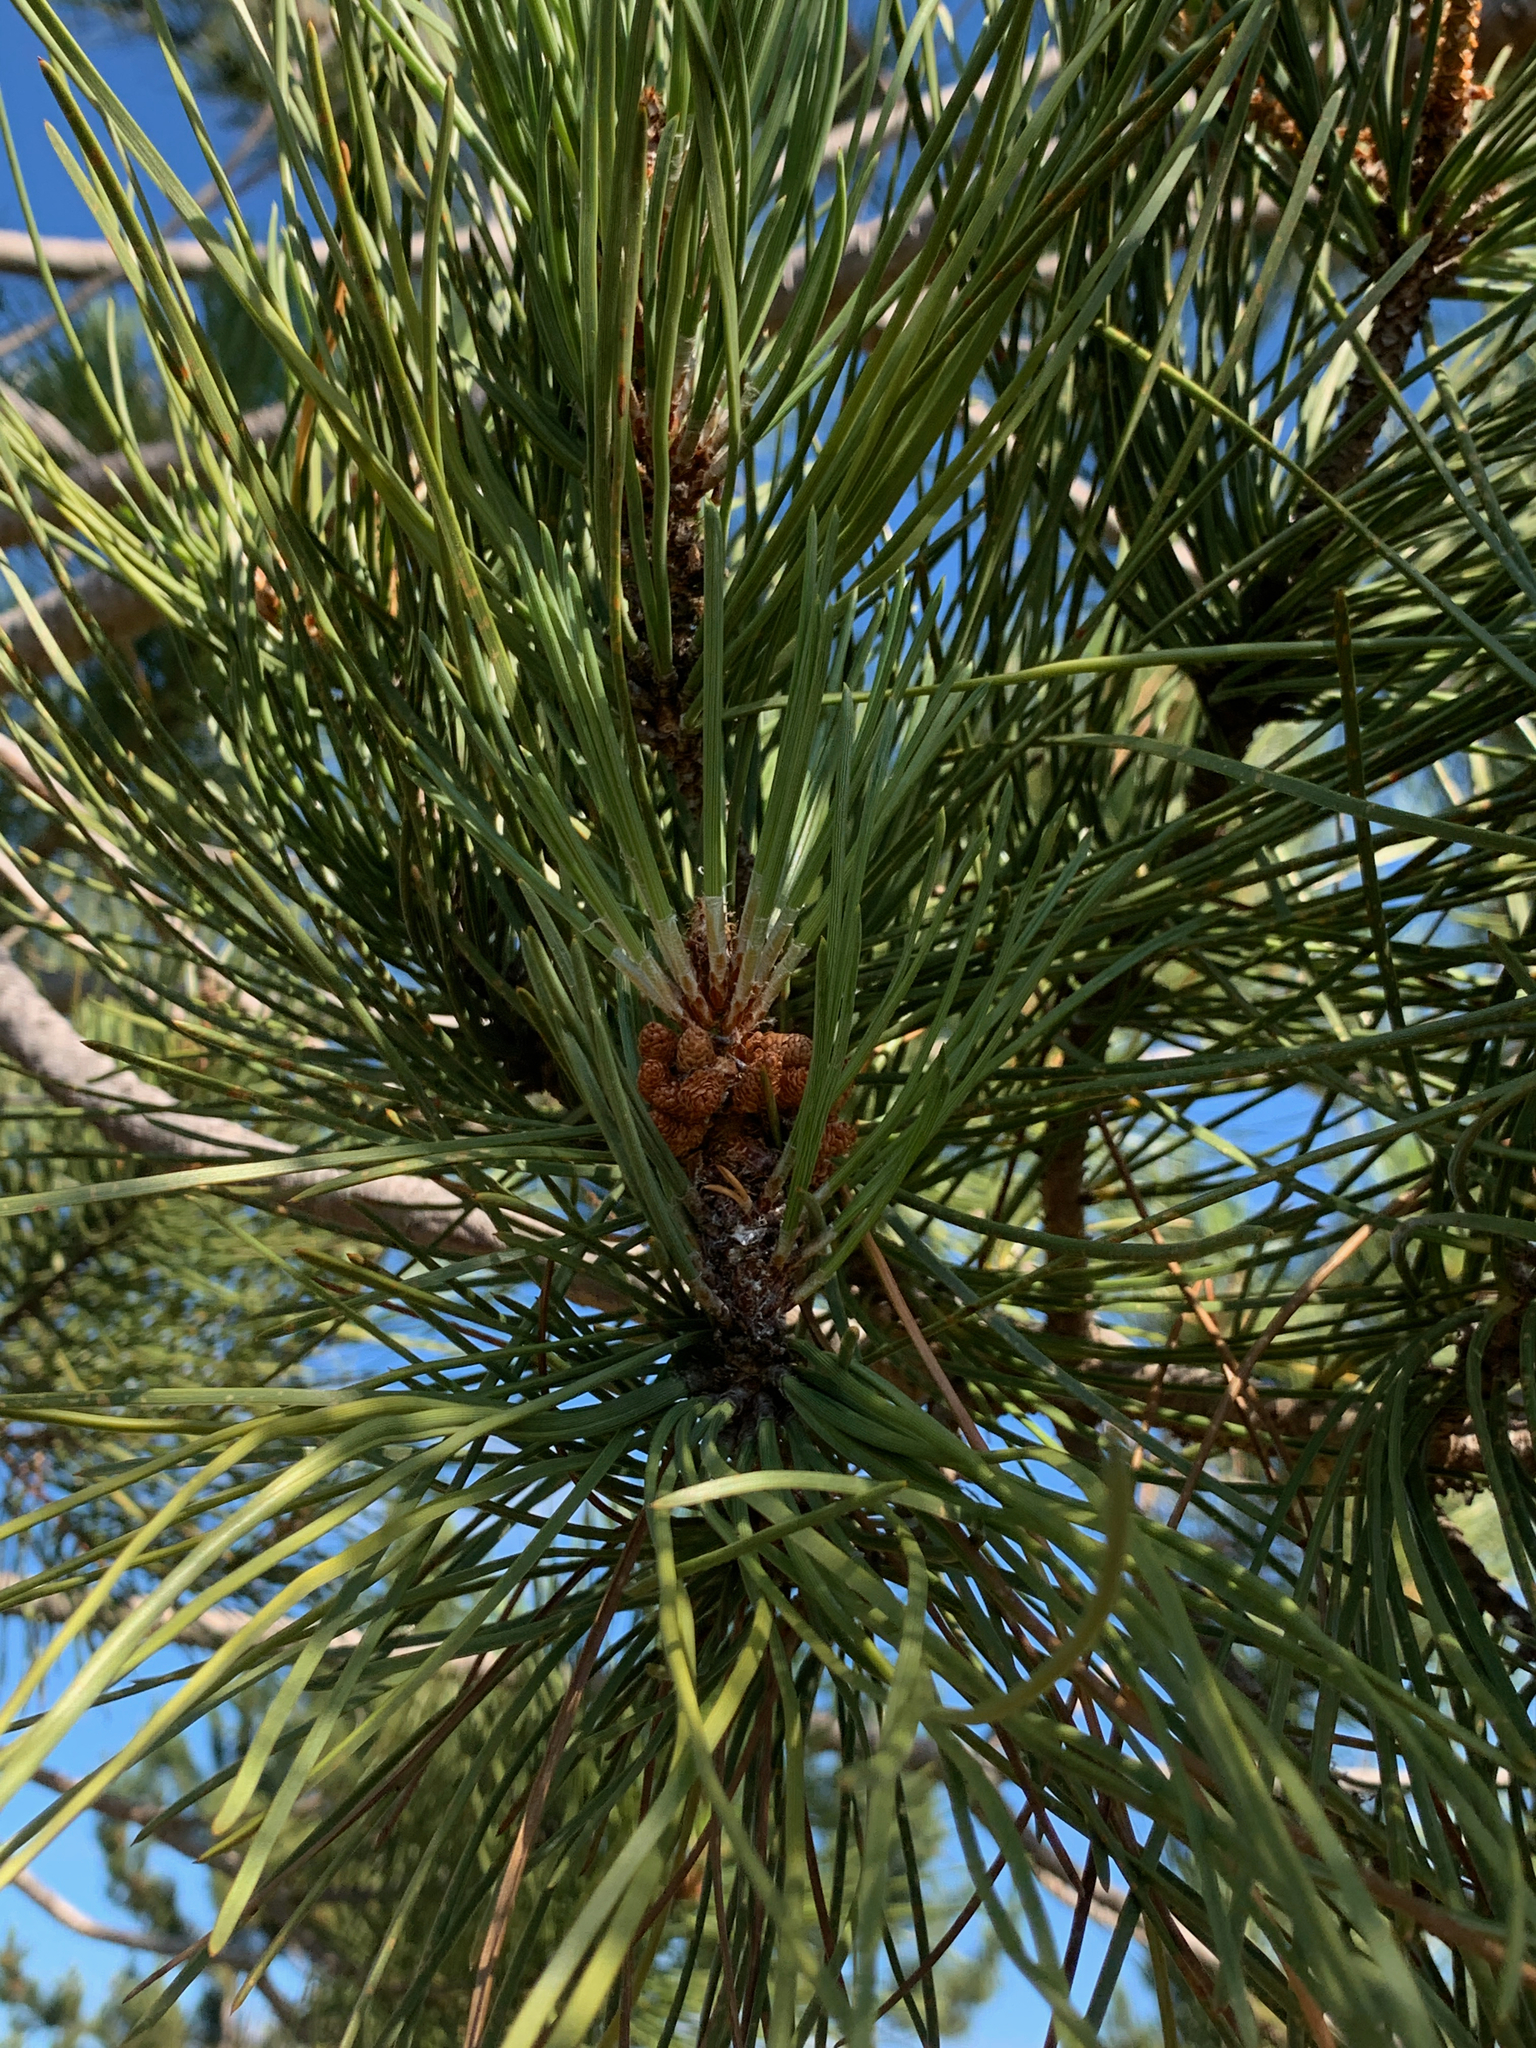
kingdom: Plantae
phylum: Tracheophyta
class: Pinopsida
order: Pinales
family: Pinaceae
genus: Pinus
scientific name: Pinus pinaster
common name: Maritime pine
